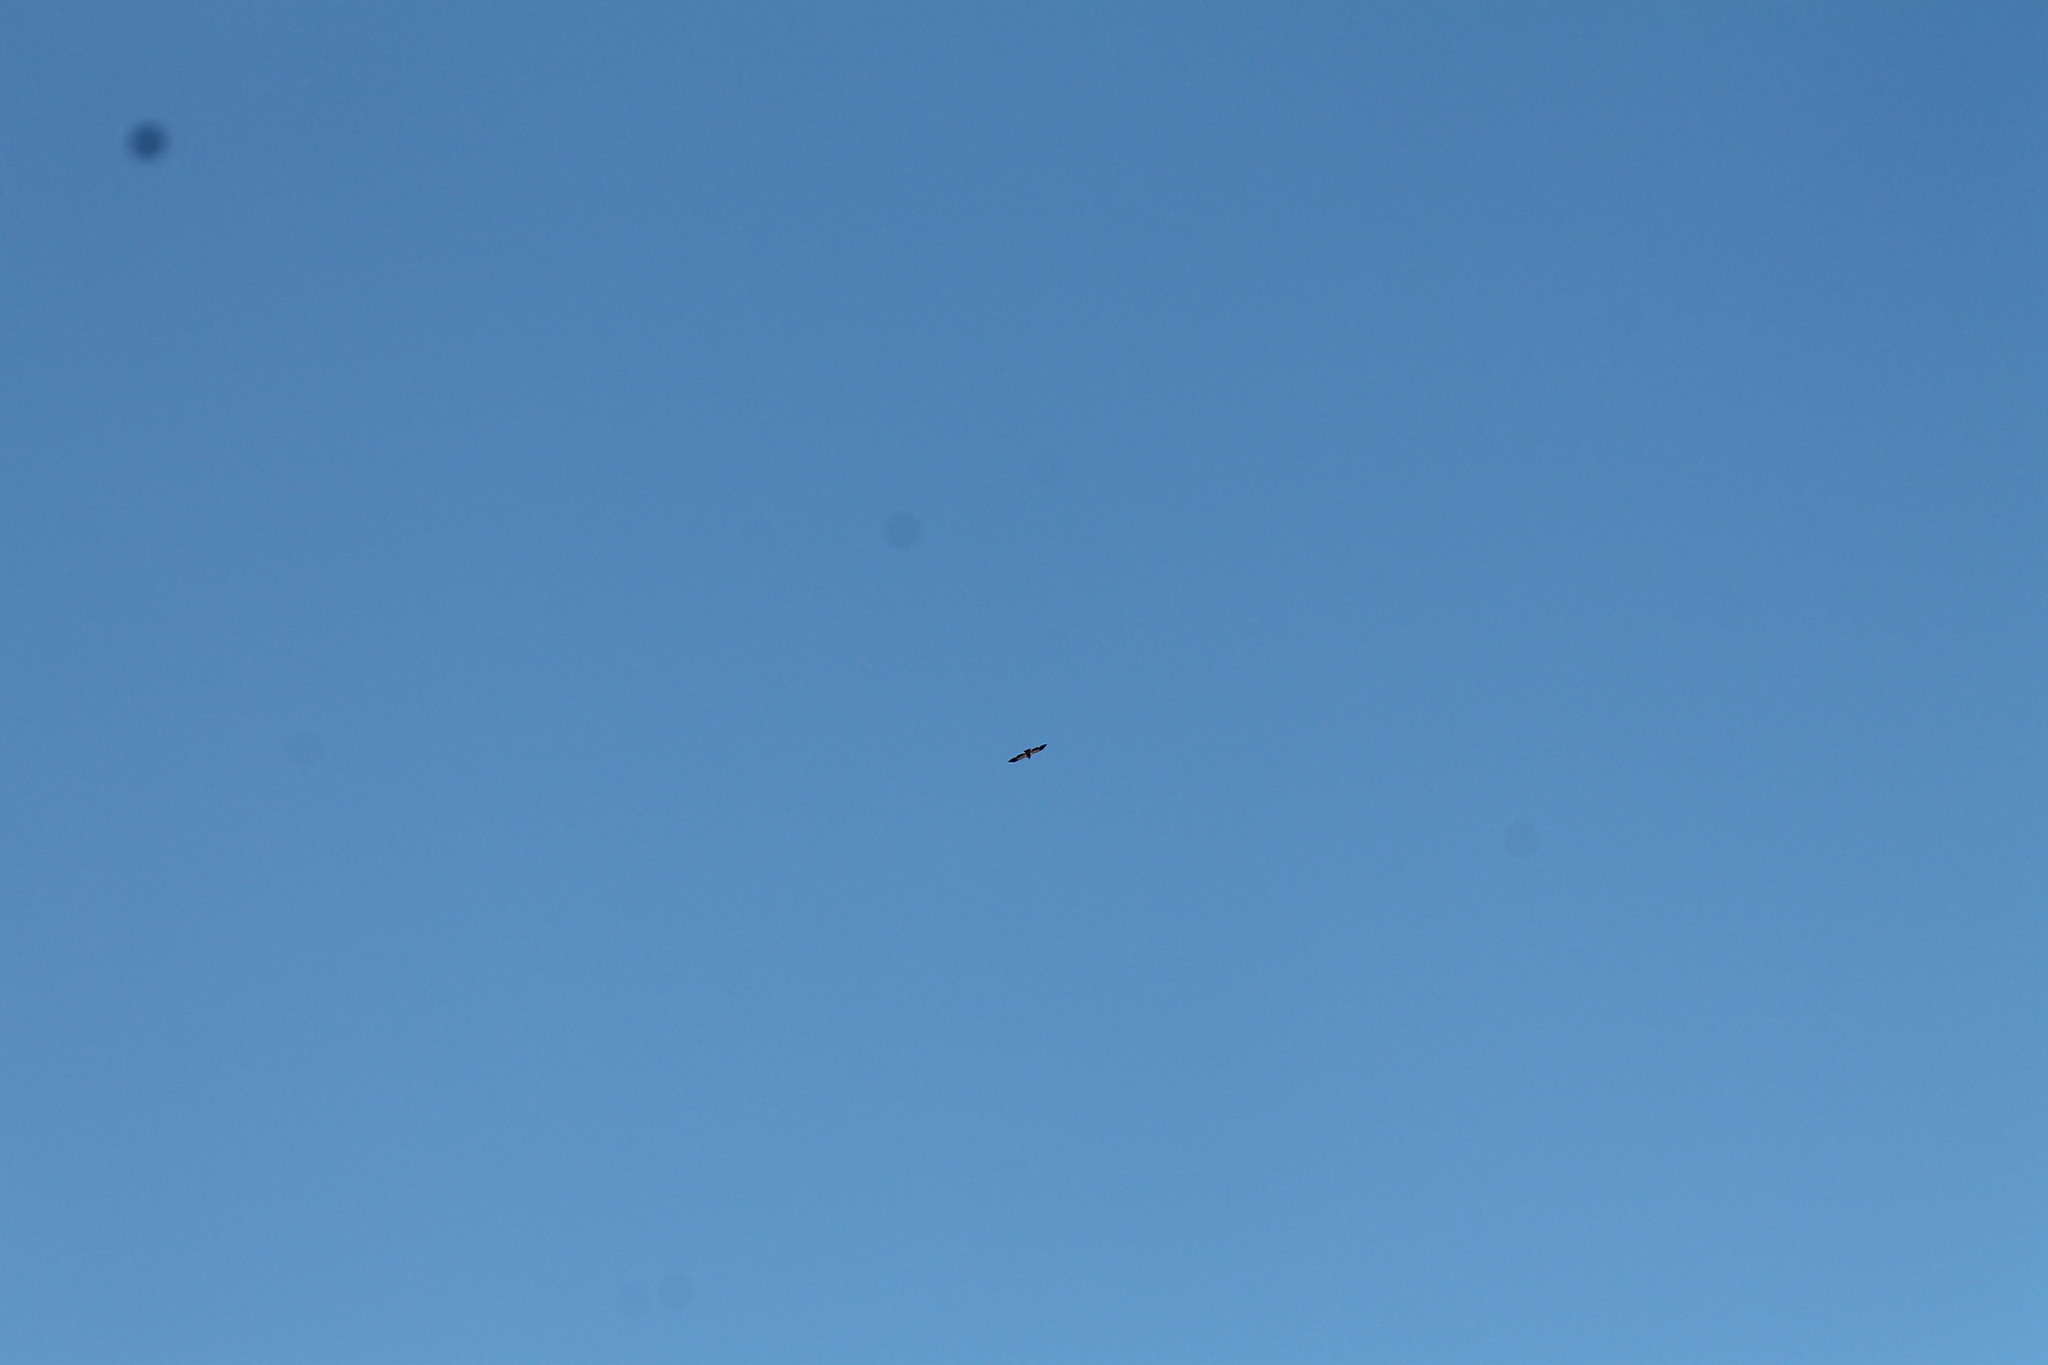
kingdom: Animalia
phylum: Chordata
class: Aves
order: Accipitriformes
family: Accipitridae
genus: Haliaeetus
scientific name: Haliaeetus leucocephalus
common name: Bald eagle
